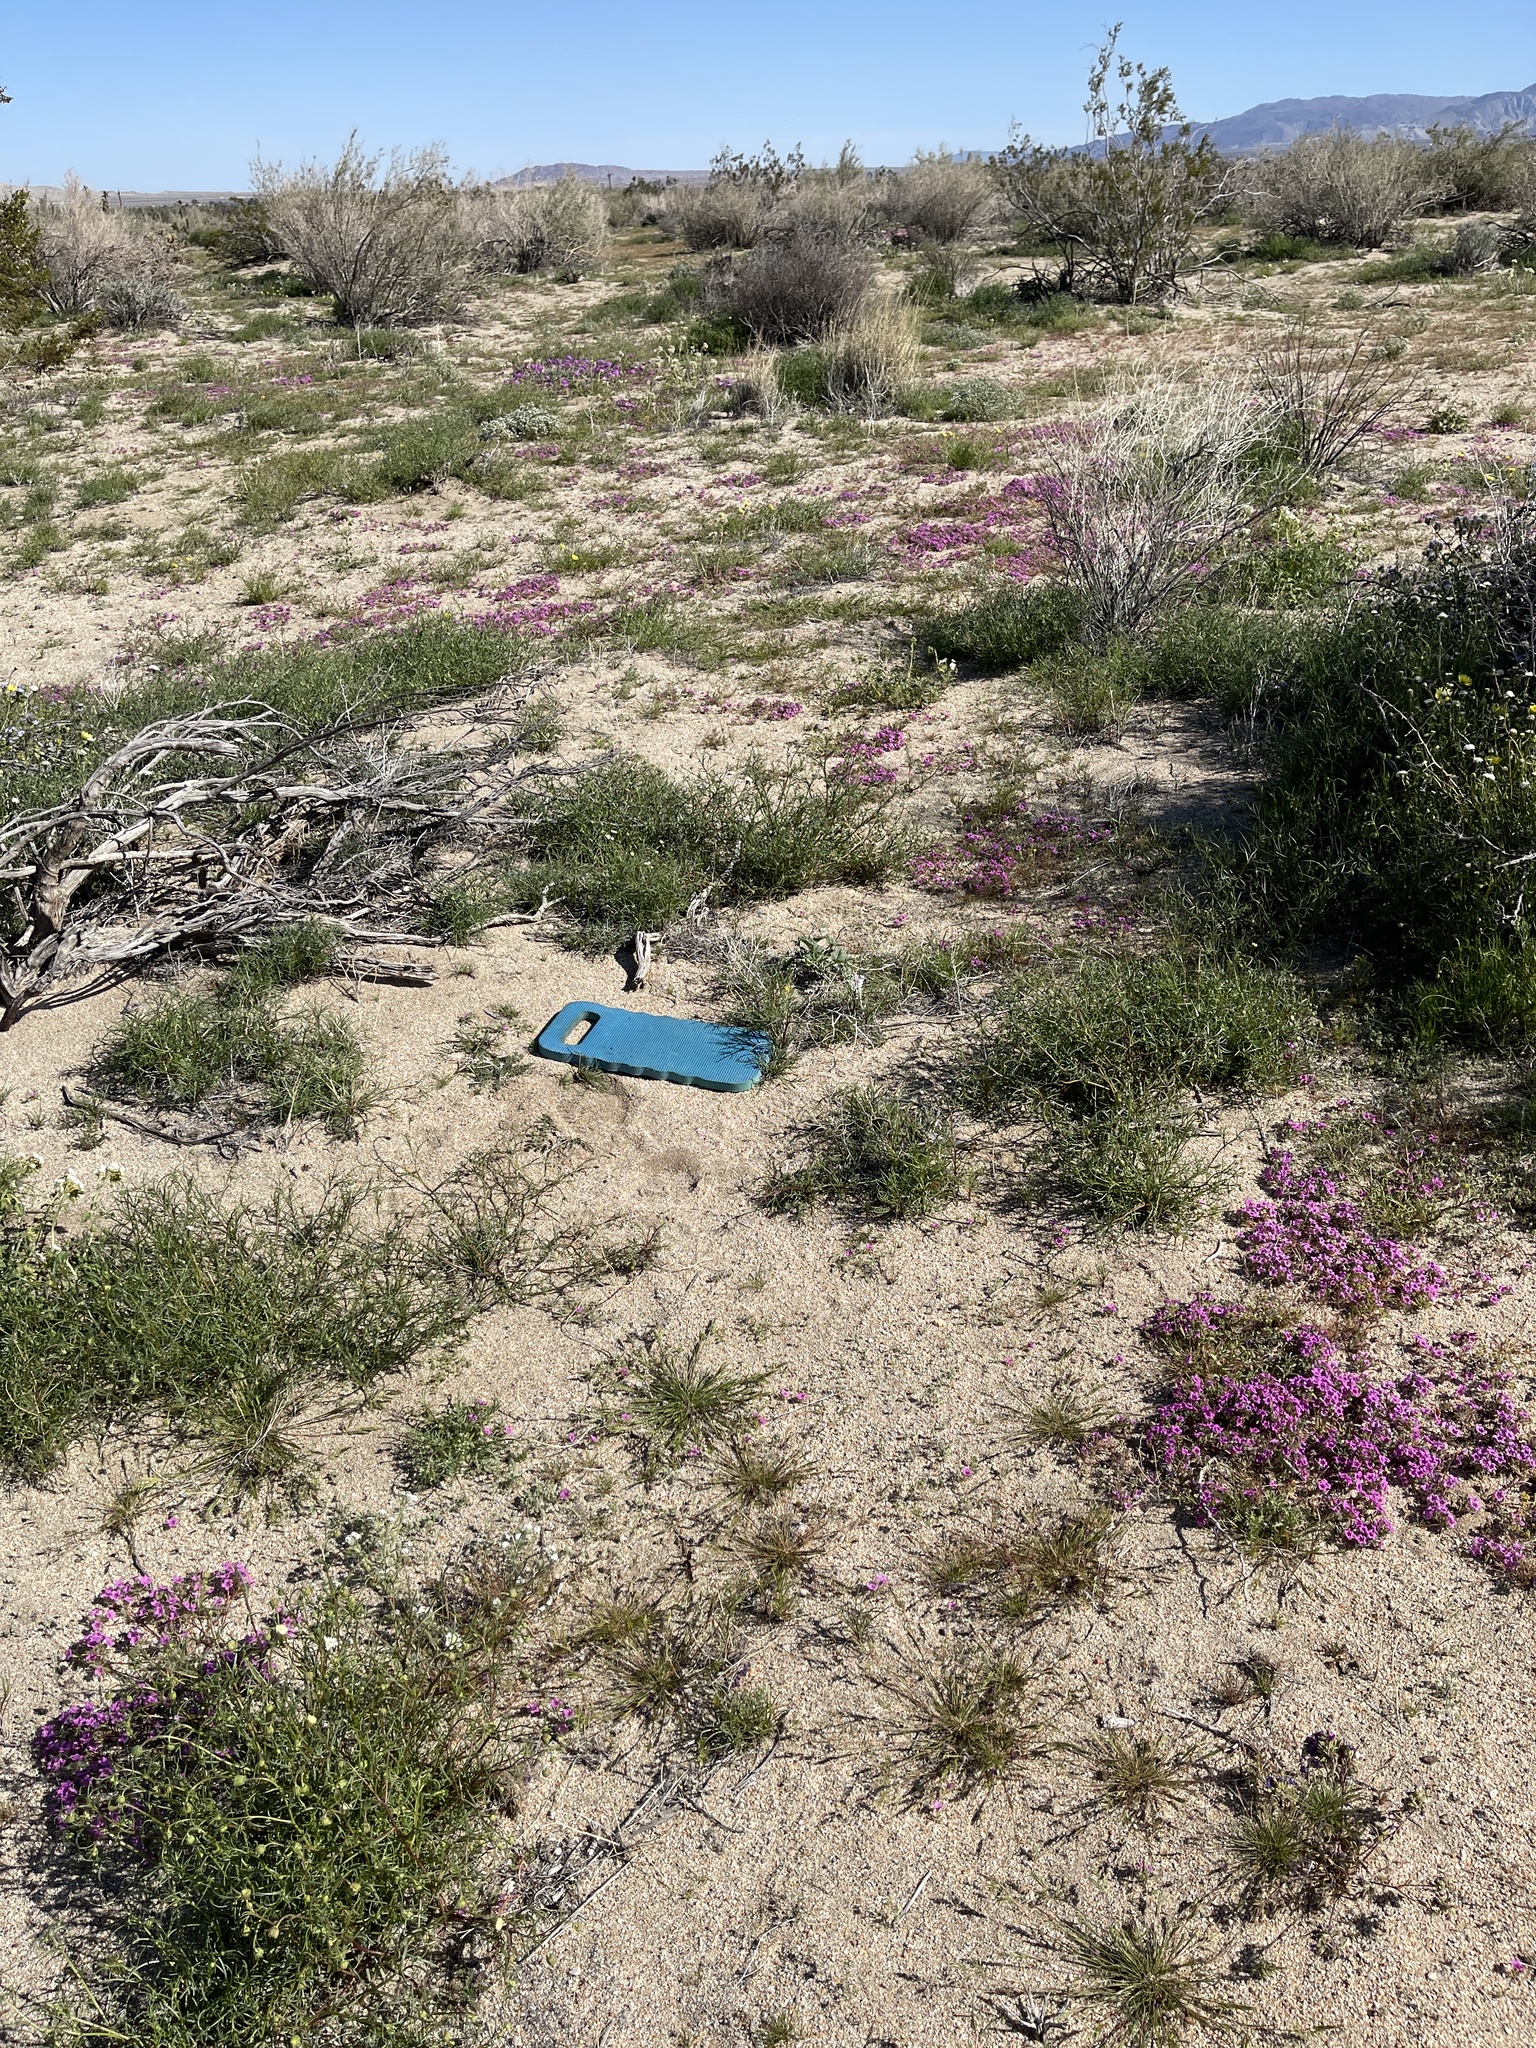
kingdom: Plantae
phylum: Tracheophyta
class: Magnoliopsida
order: Cucurbitales
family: Cucurbitaceae
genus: Cucurbita
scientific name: Cucurbita palmata
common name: Coyote-melon
